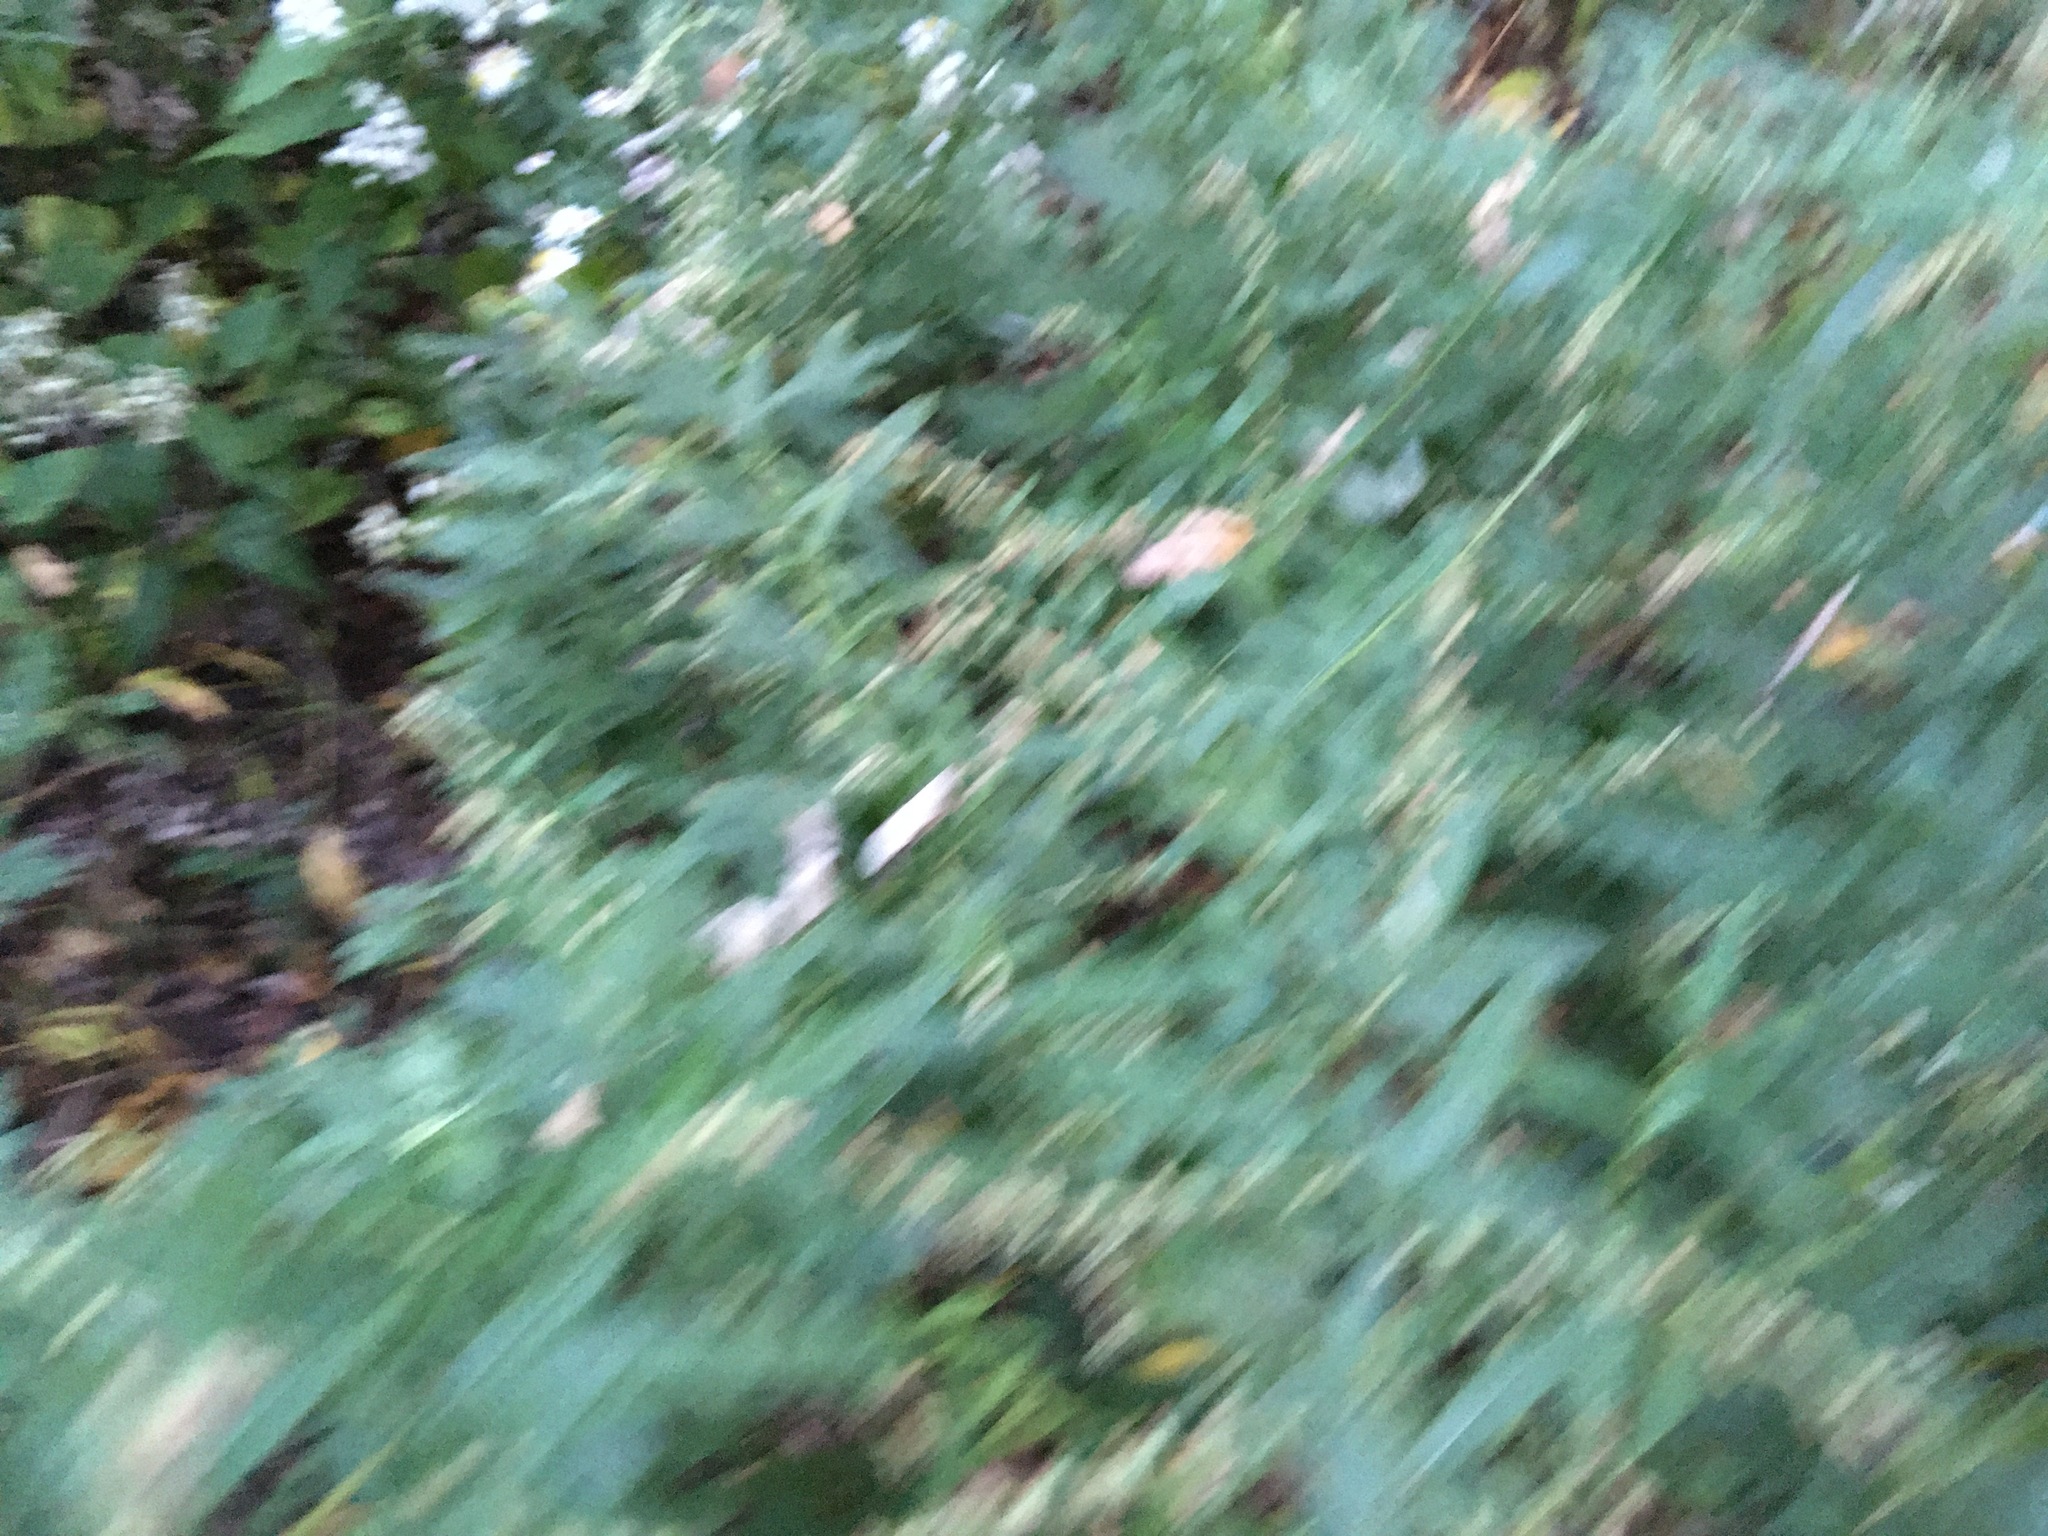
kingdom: Plantae
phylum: Tracheophyta
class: Magnoliopsida
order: Asterales
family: Asteraceae
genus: Artemisia
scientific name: Artemisia vulgaris
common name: Mugwort
